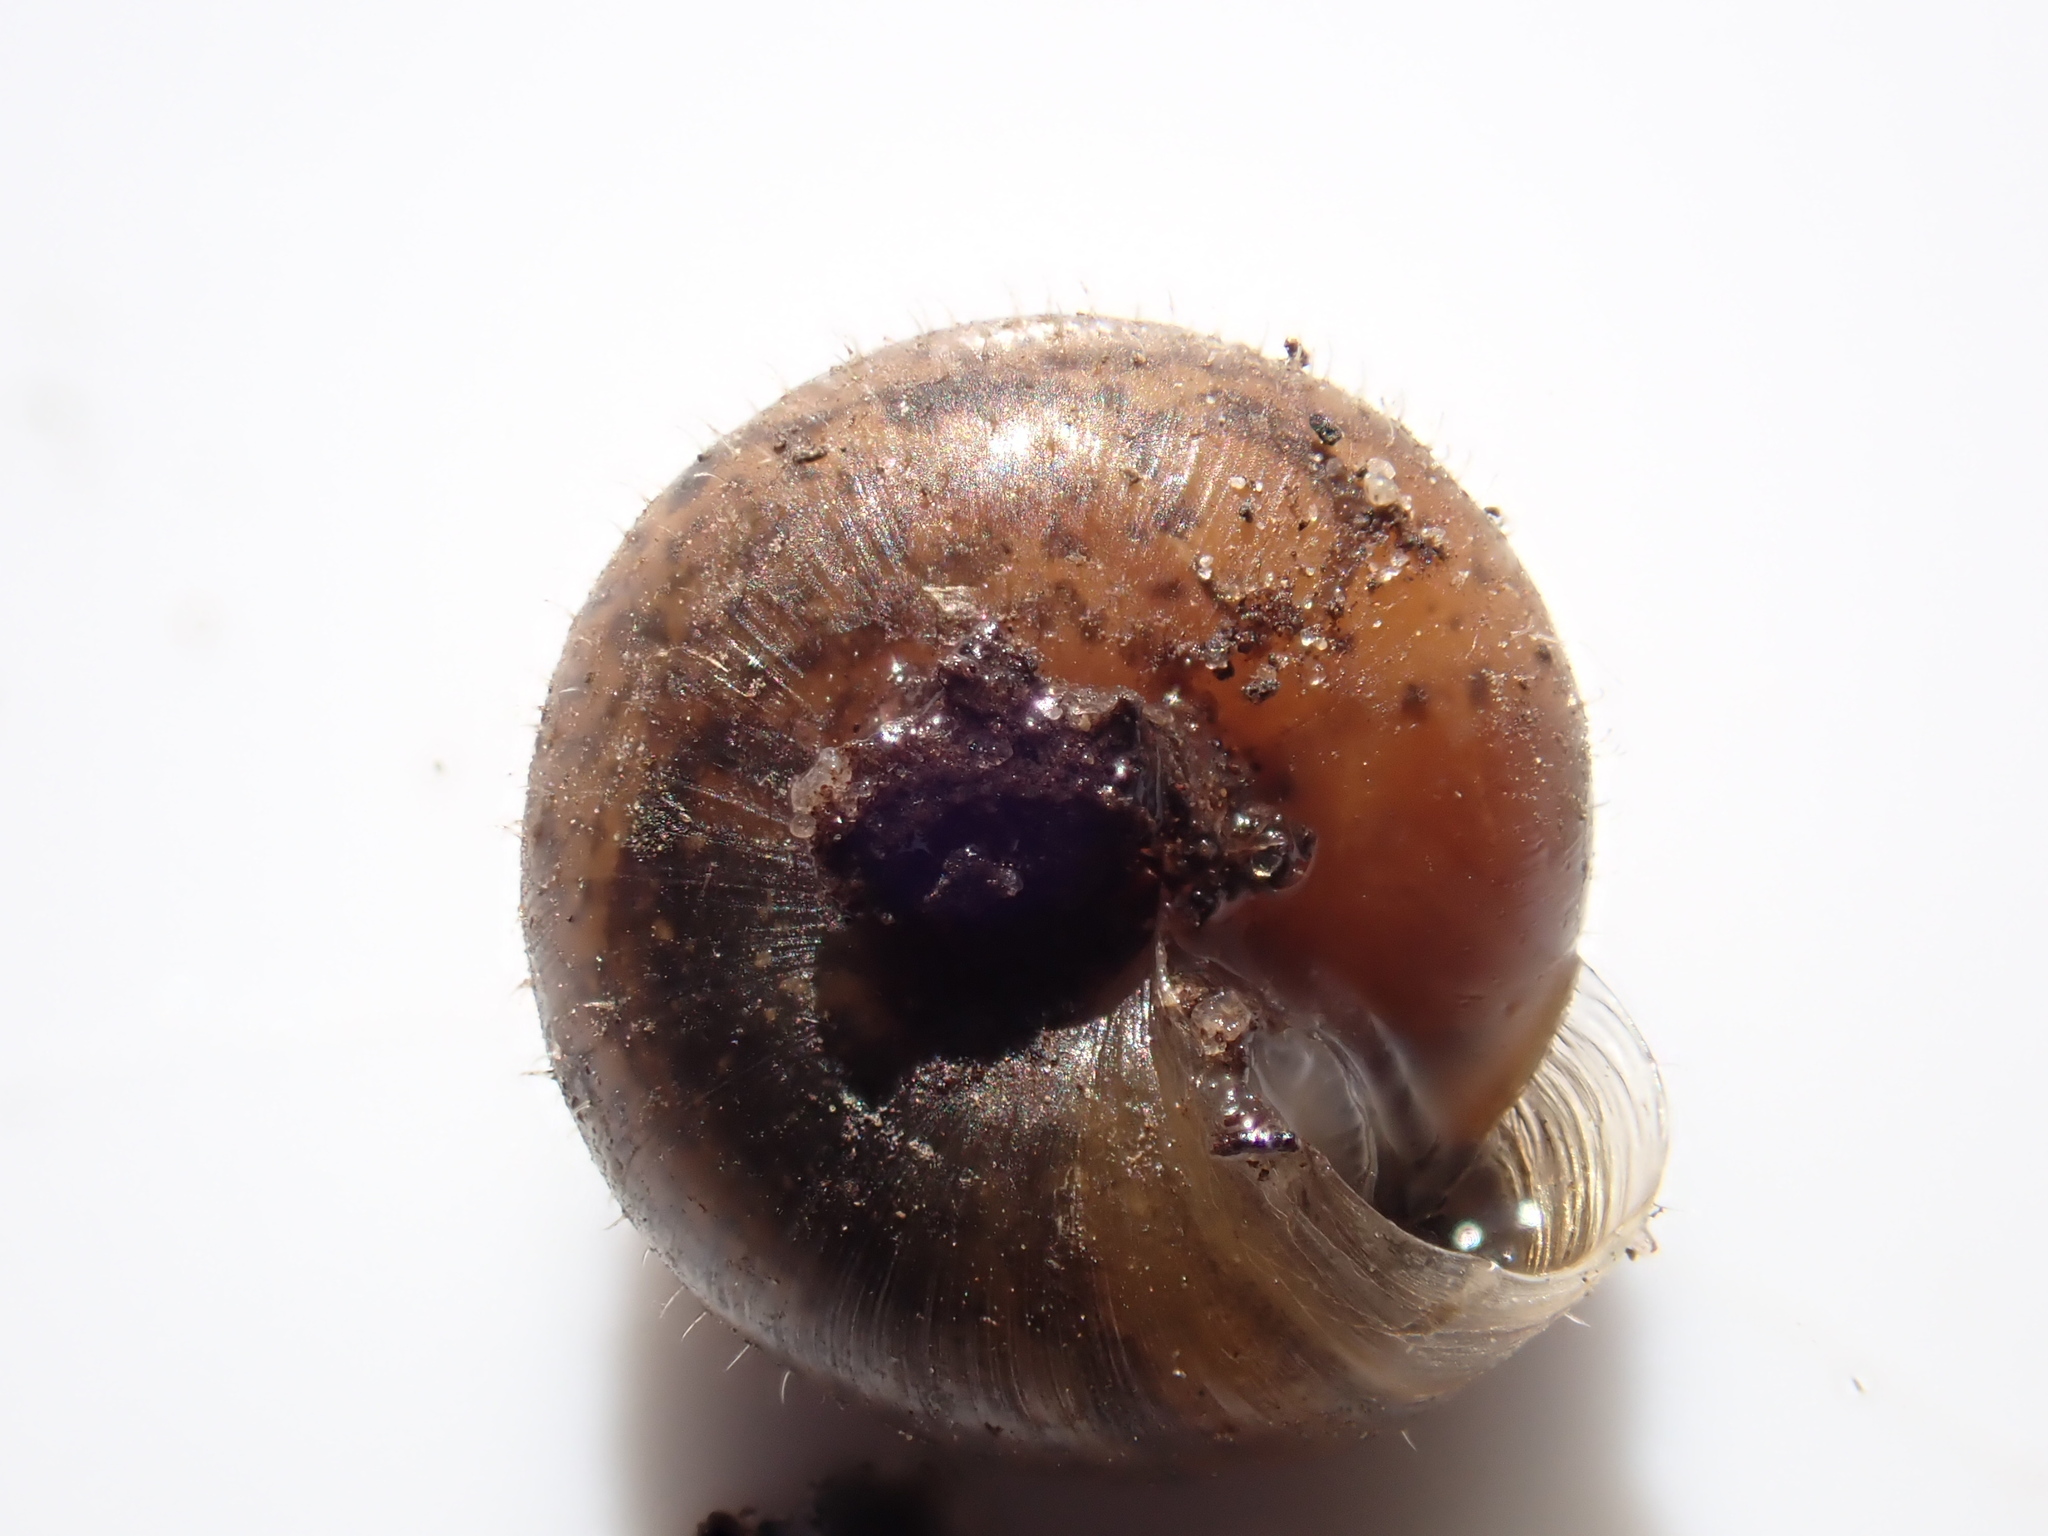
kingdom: Animalia
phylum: Mollusca
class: Gastropoda
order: Stylommatophora
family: Hygromiidae
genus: Trochulus
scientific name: Trochulus hispidus
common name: Hairy snail
